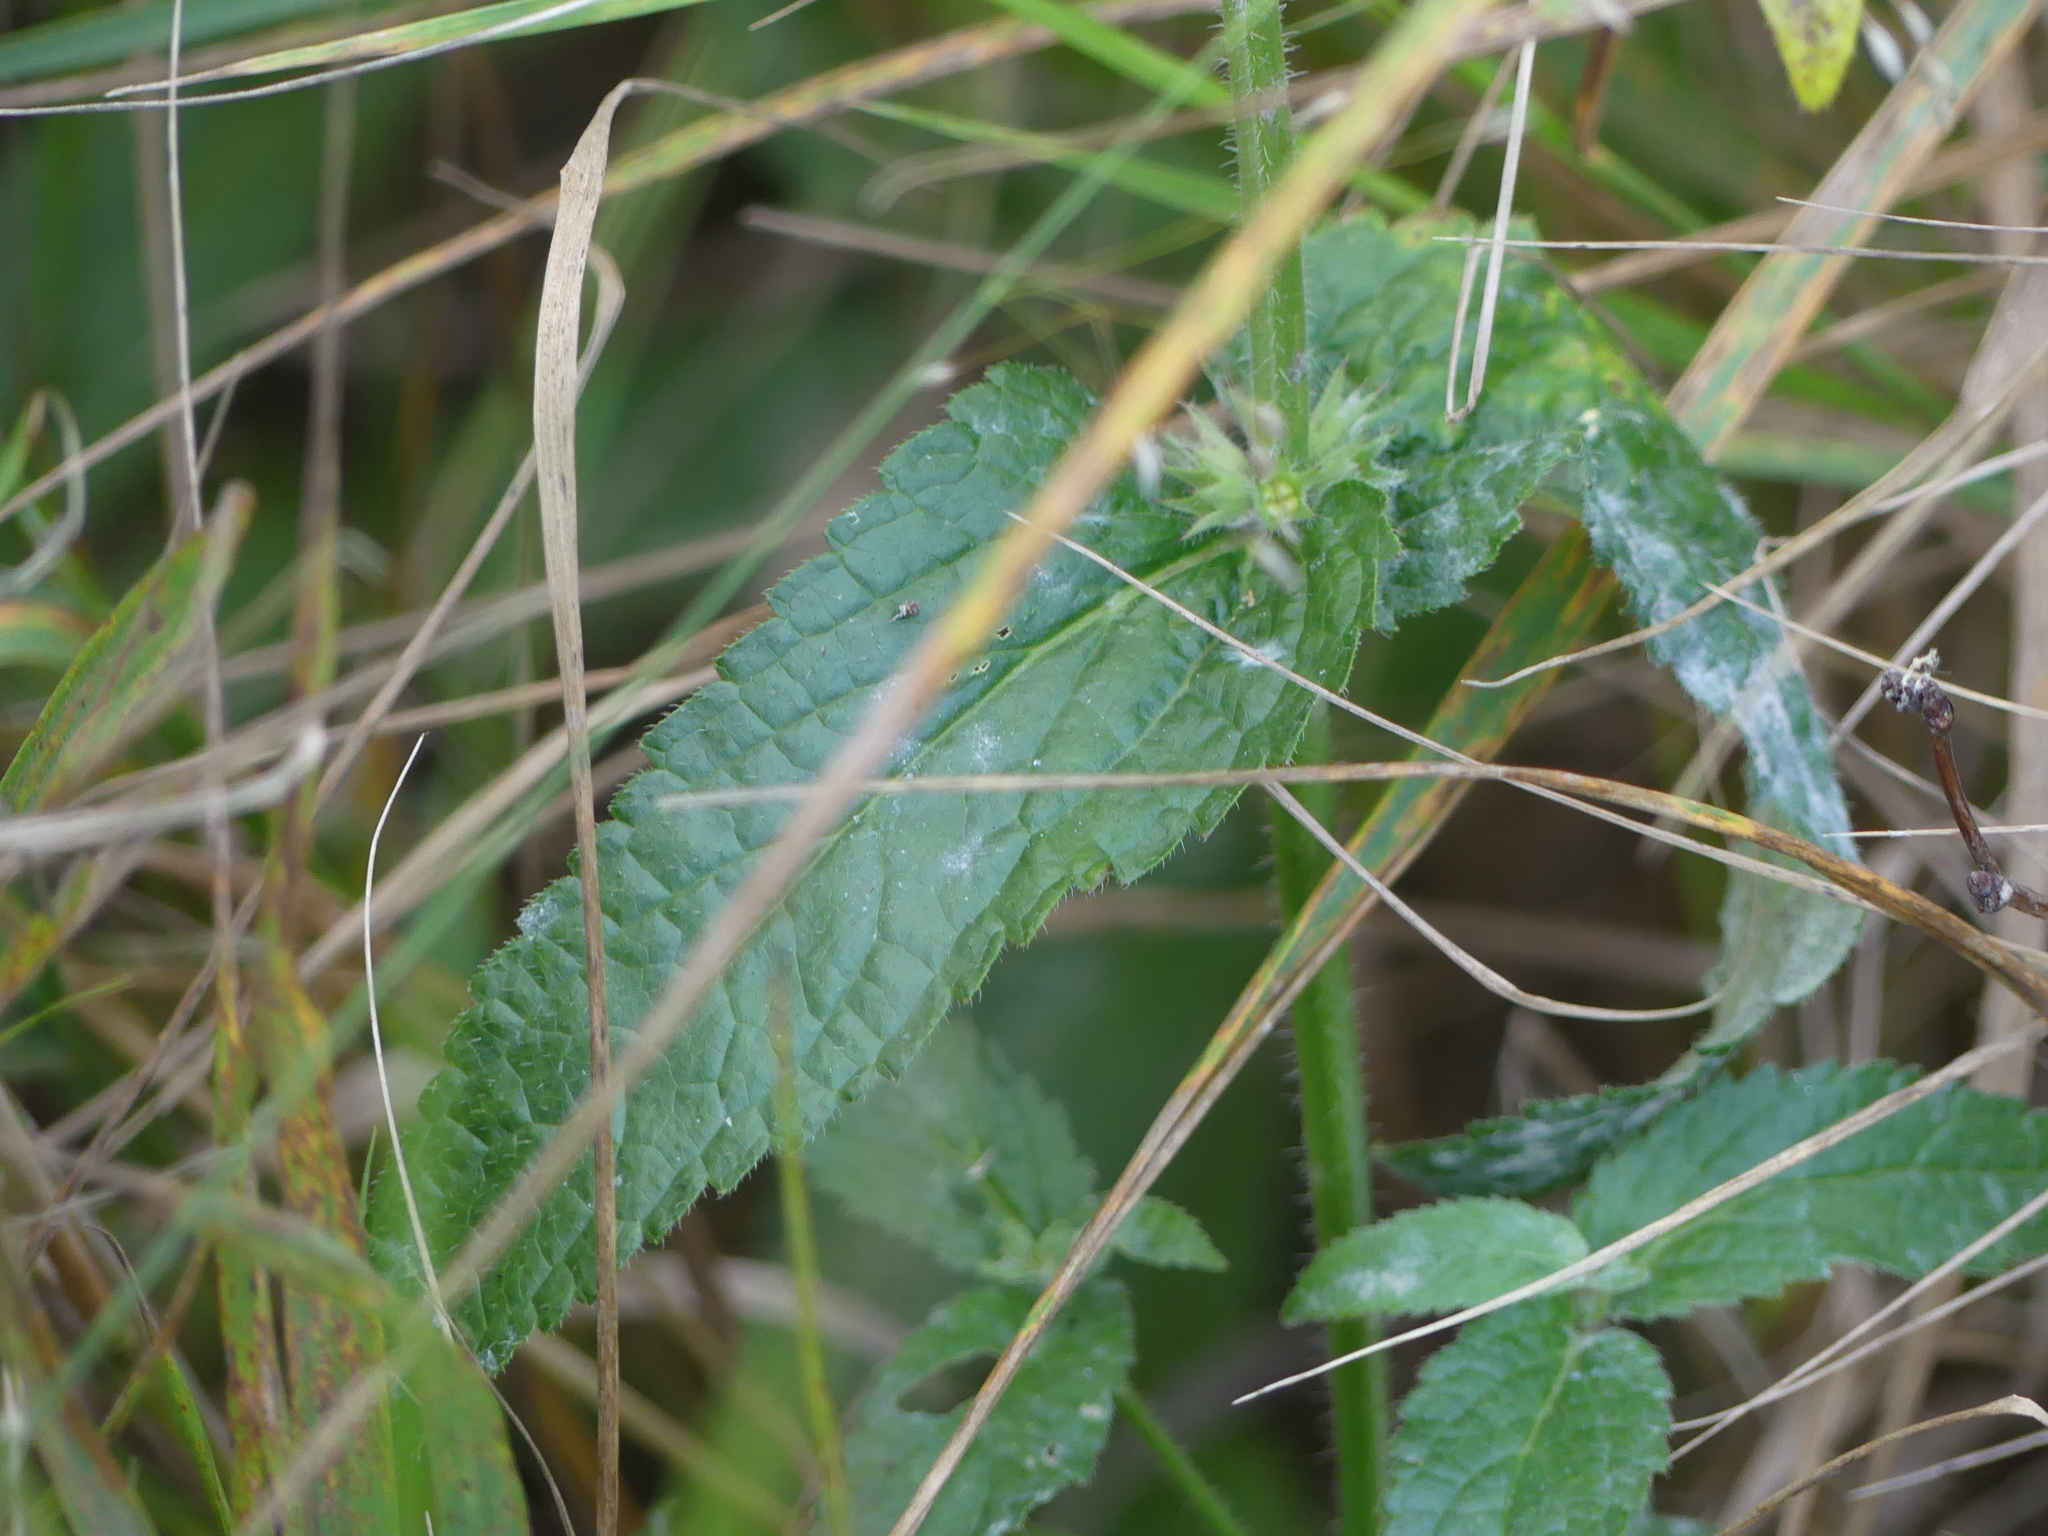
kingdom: Plantae
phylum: Tracheophyta
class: Magnoliopsida
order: Lamiales
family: Lamiaceae
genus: Stachys
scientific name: Stachys pilosa
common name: Hairy hedge-nettle
